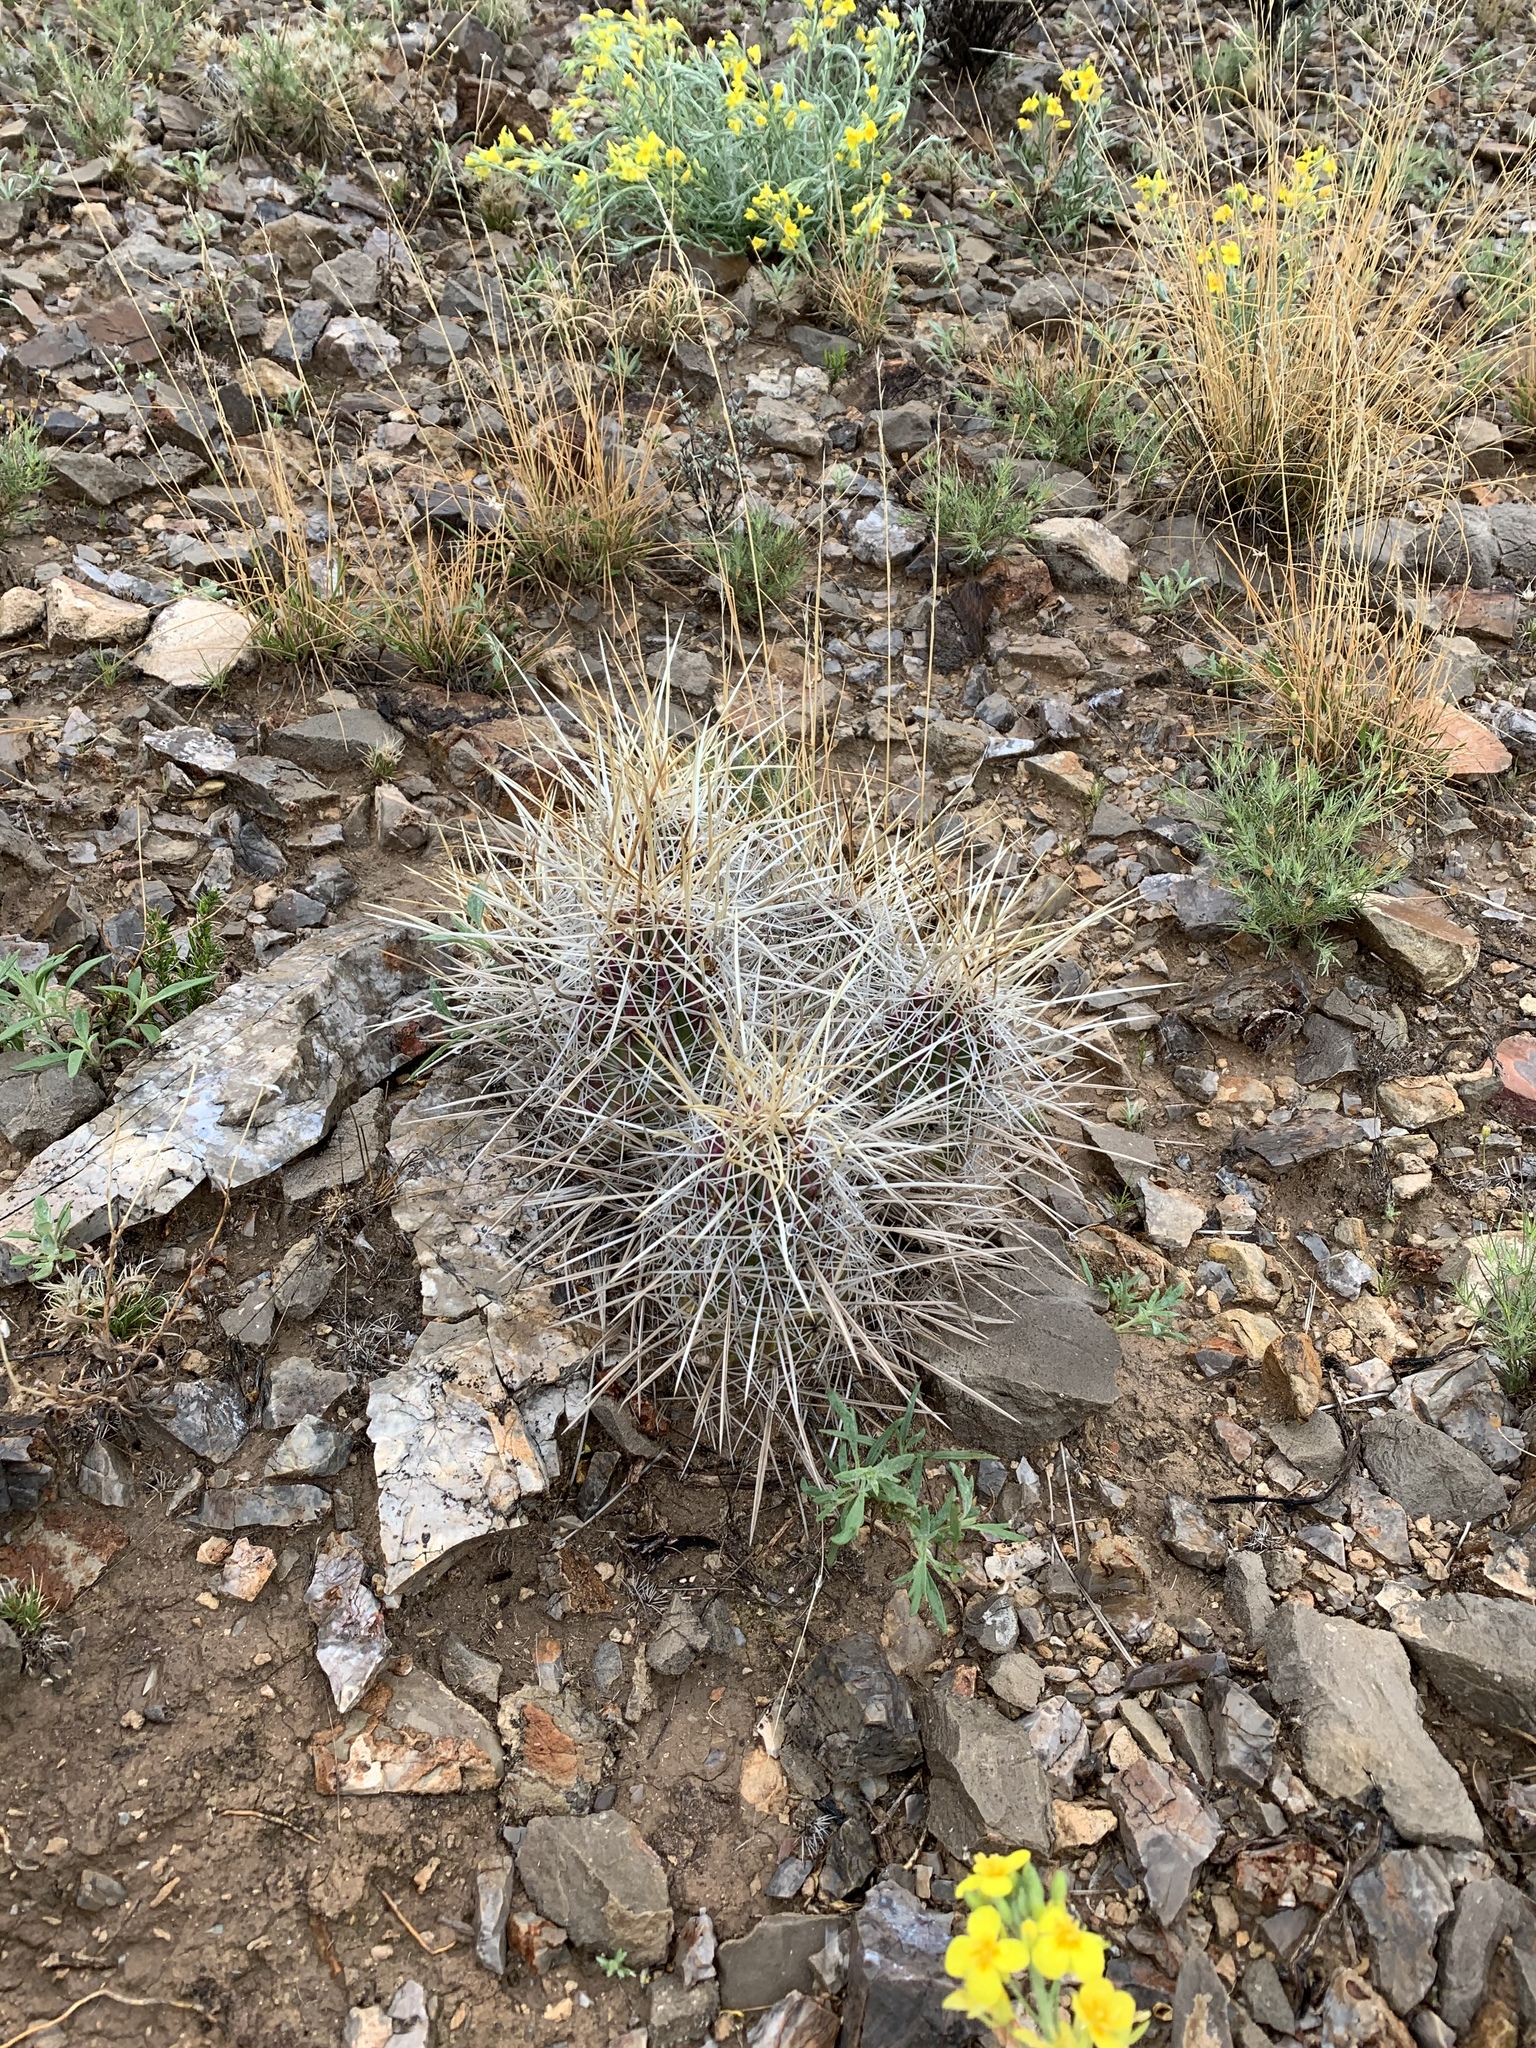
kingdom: Plantae
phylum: Tracheophyta
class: Magnoliopsida
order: Caryophyllales
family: Cactaceae
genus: Echinocereus
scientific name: Echinocereus stramineus
